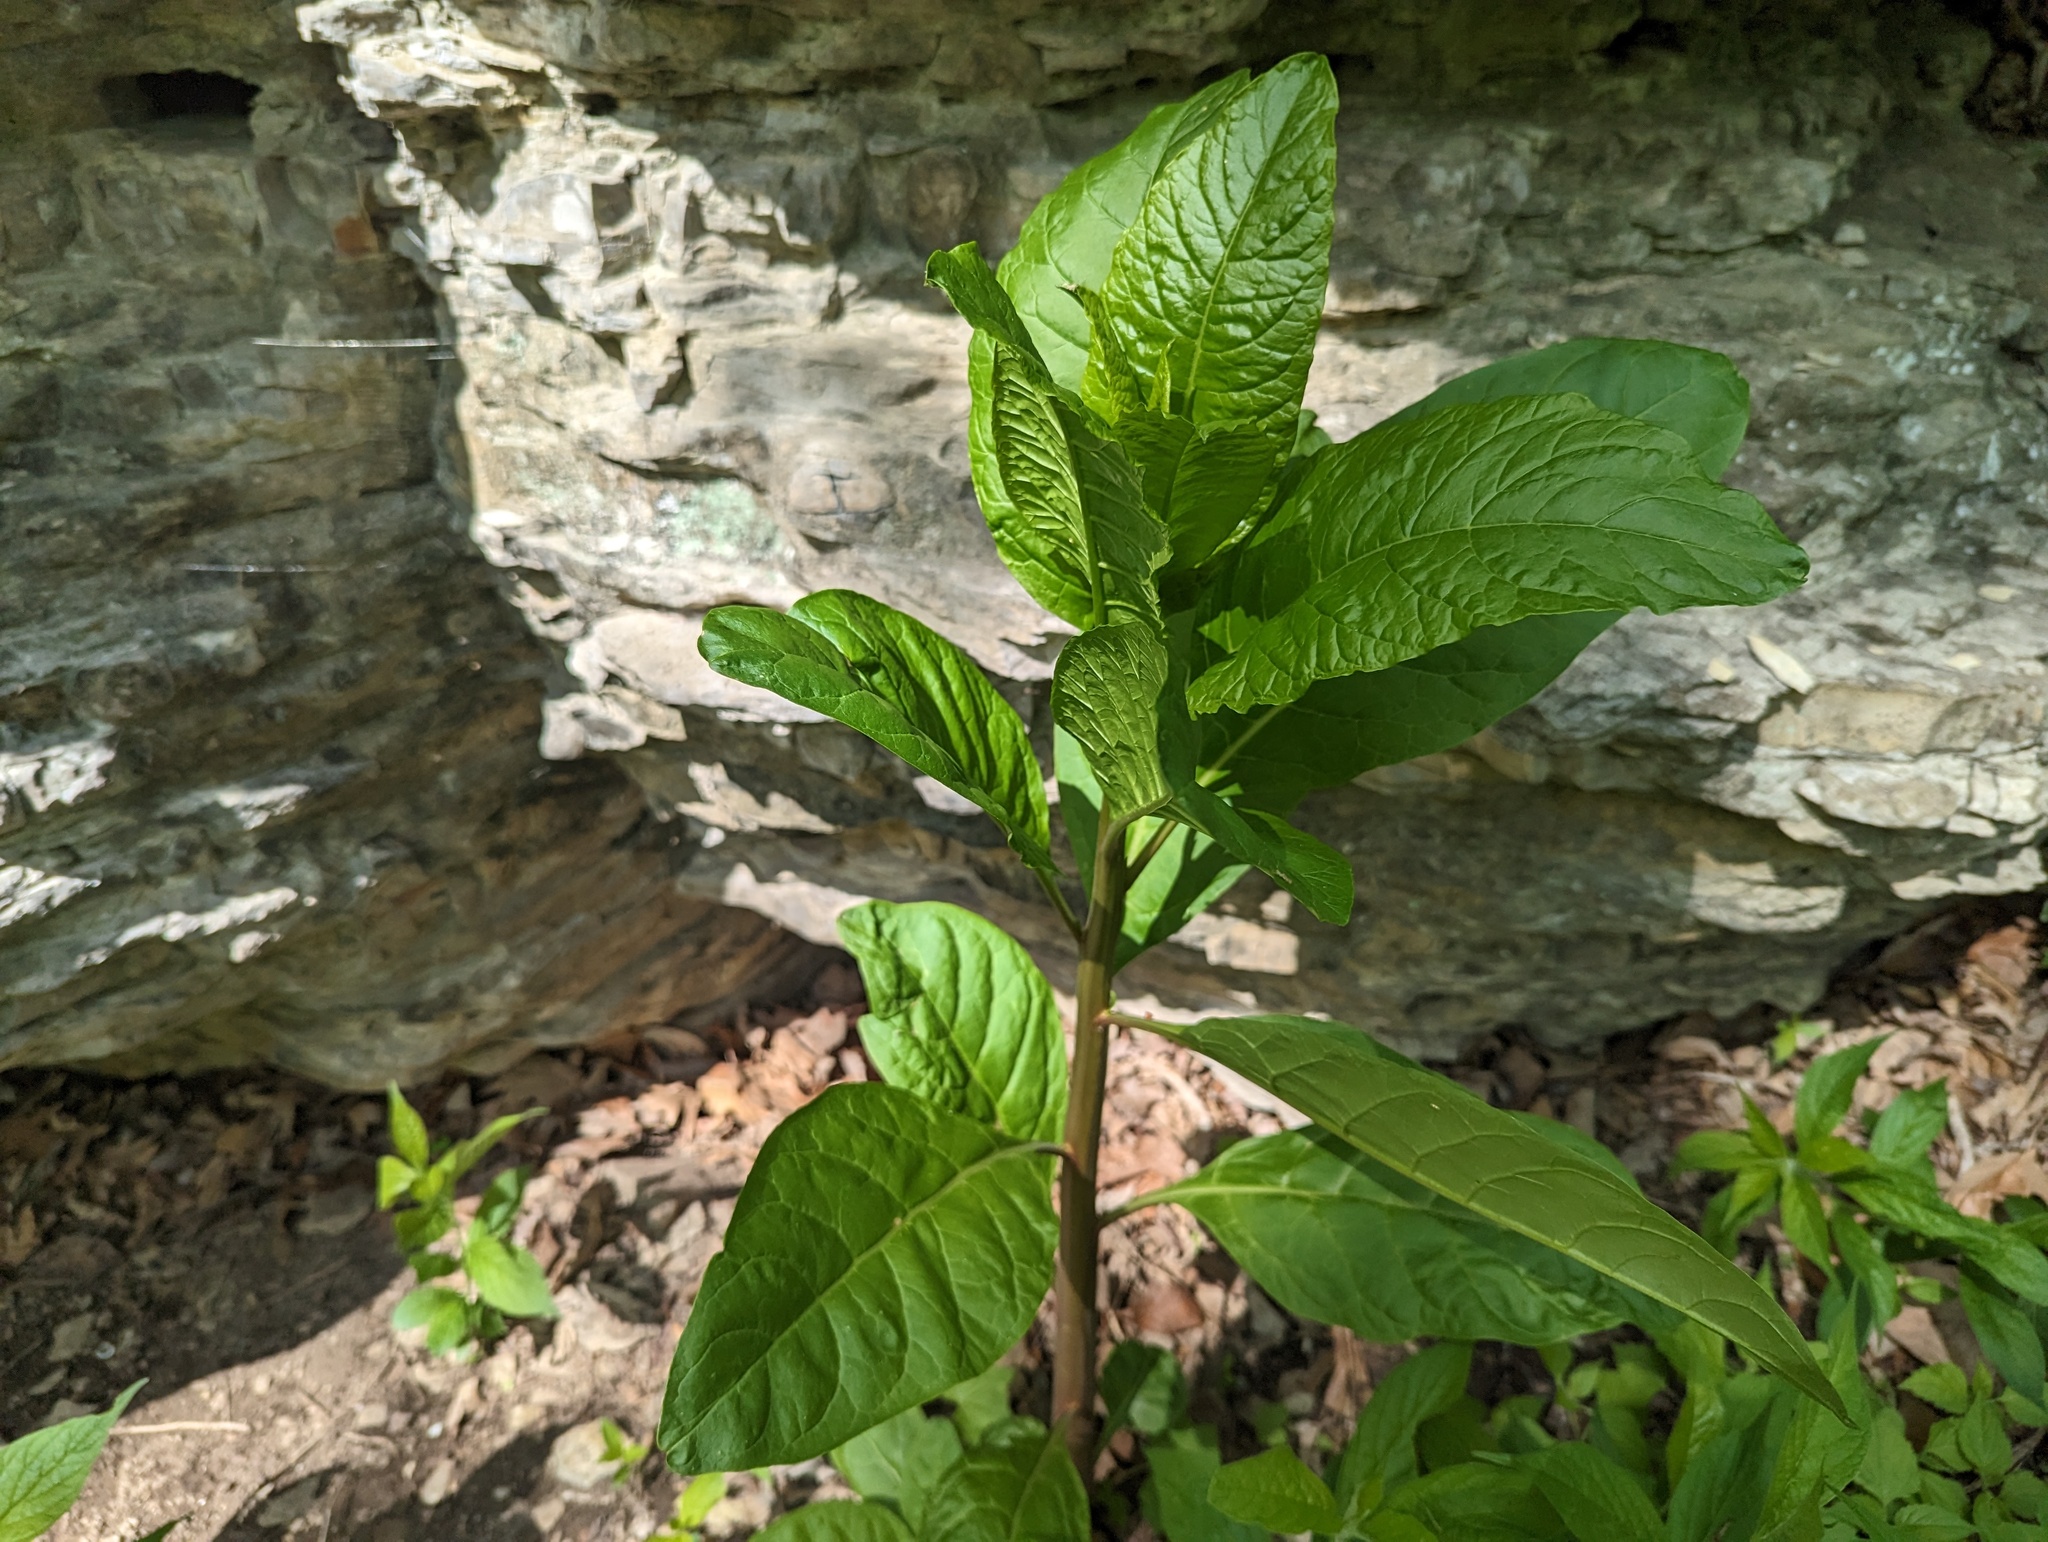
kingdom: Plantae
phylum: Tracheophyta
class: Magnoliopsida
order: Caryophyllales
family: Phytolaccaceae
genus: Phytolacca
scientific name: Phytolacca americana
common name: American pokeweed
